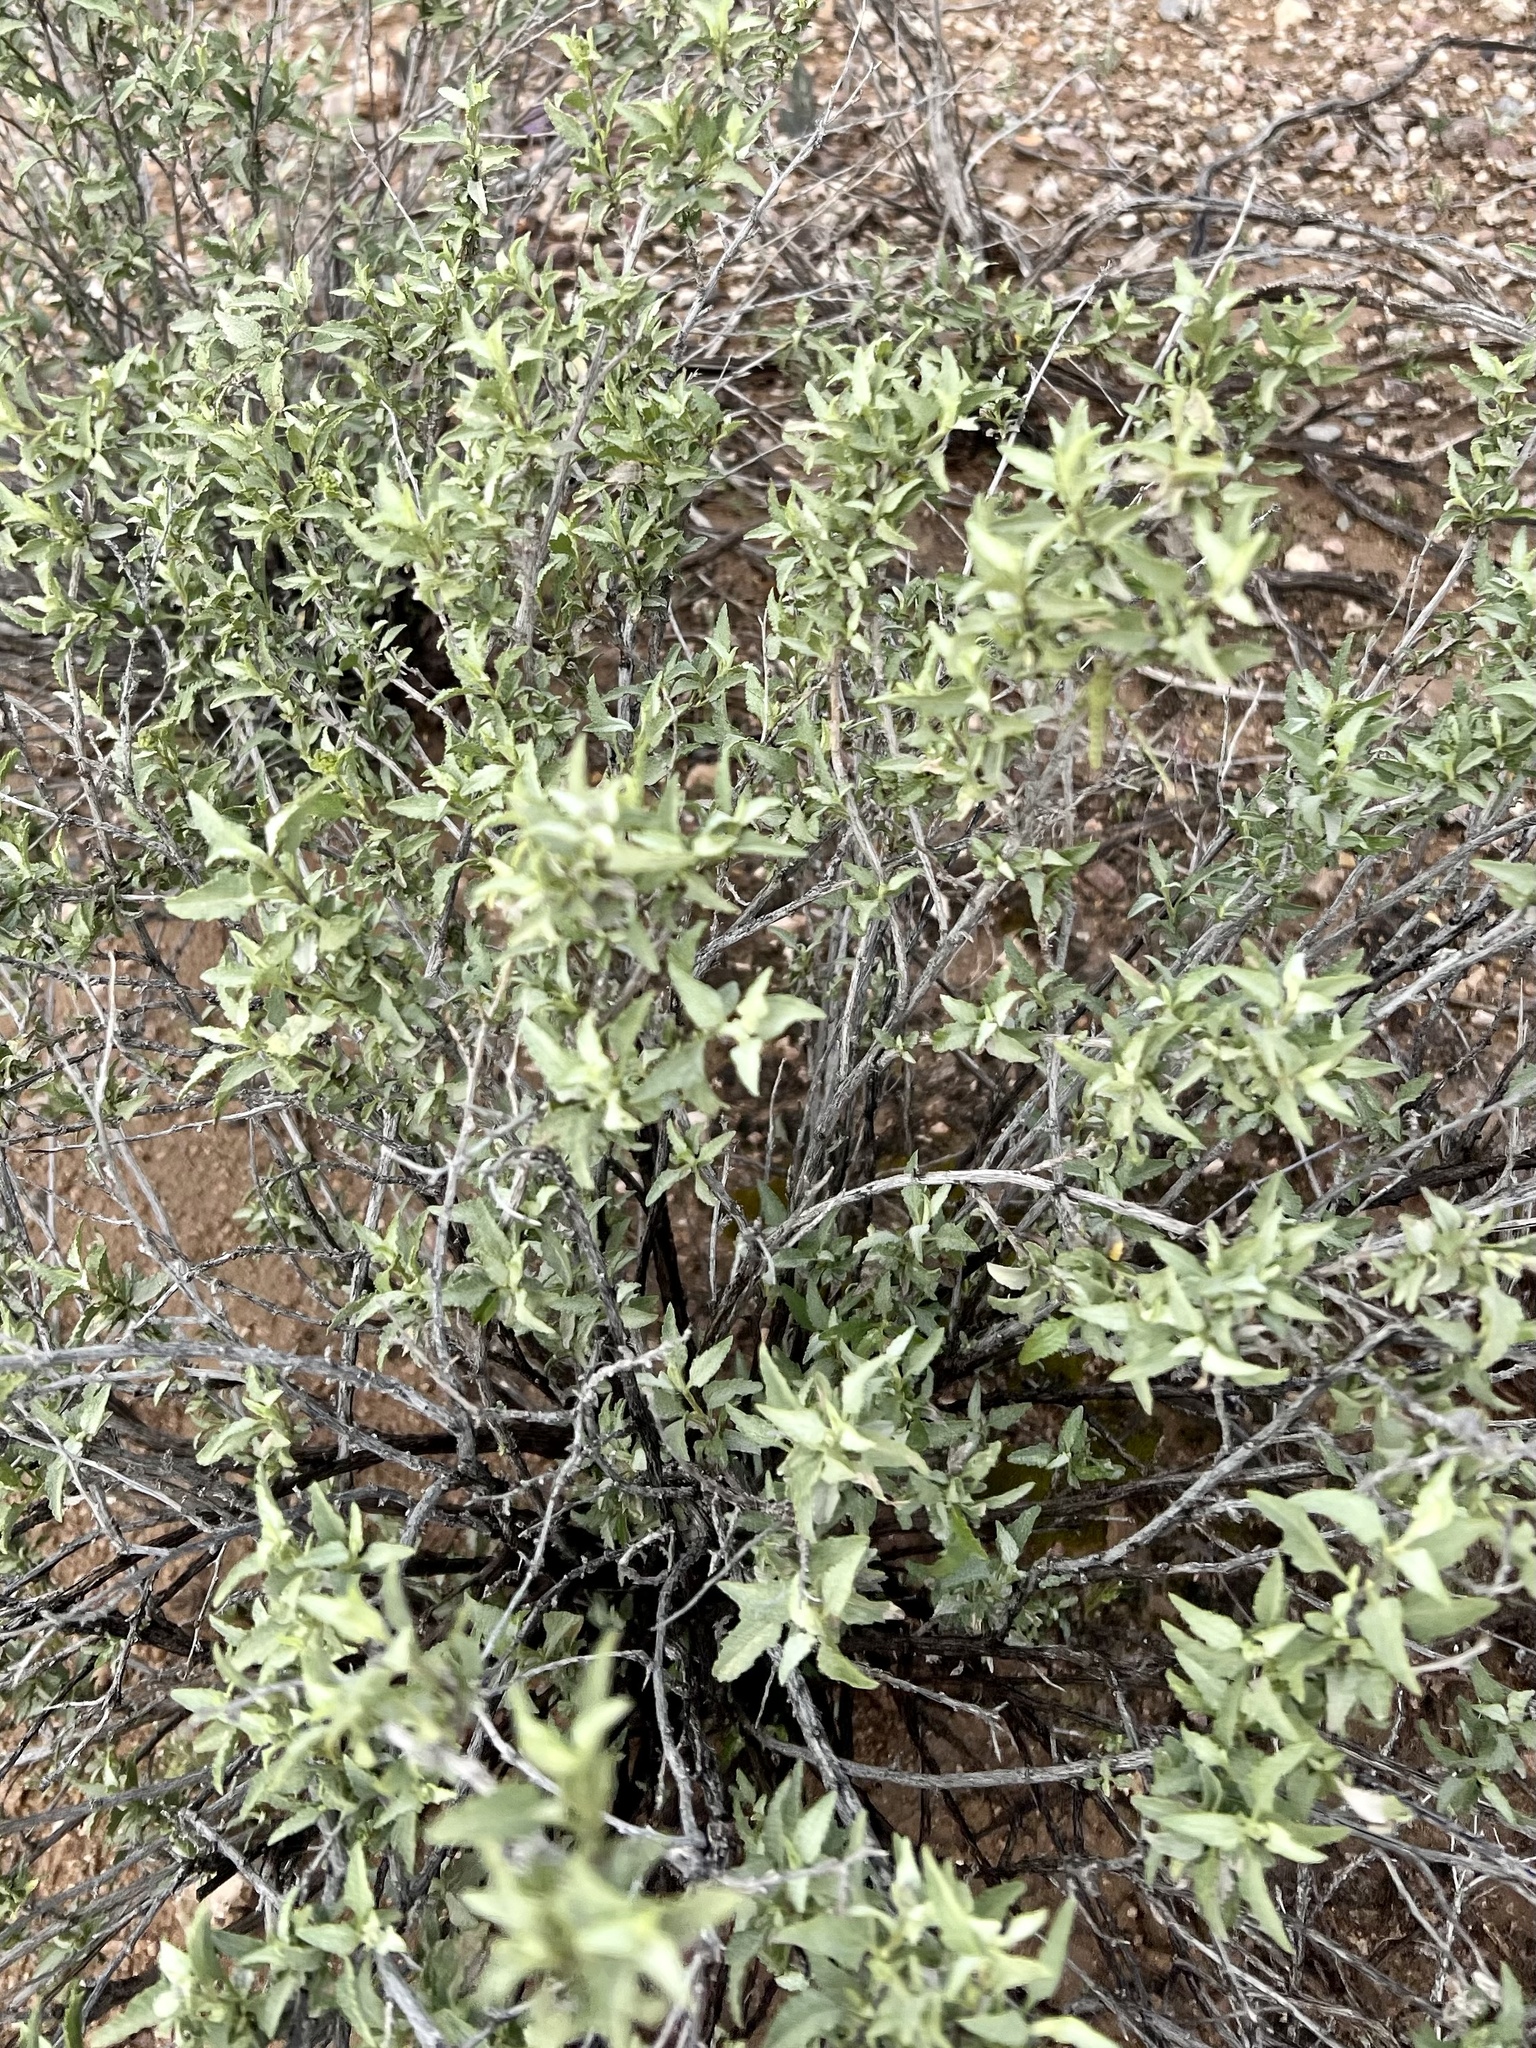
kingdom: Plantae
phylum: Tracheophyta
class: Magnoliopsida
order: Asterales
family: Asteraceae
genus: Ambrosia
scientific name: Ambrosia deltoidea
